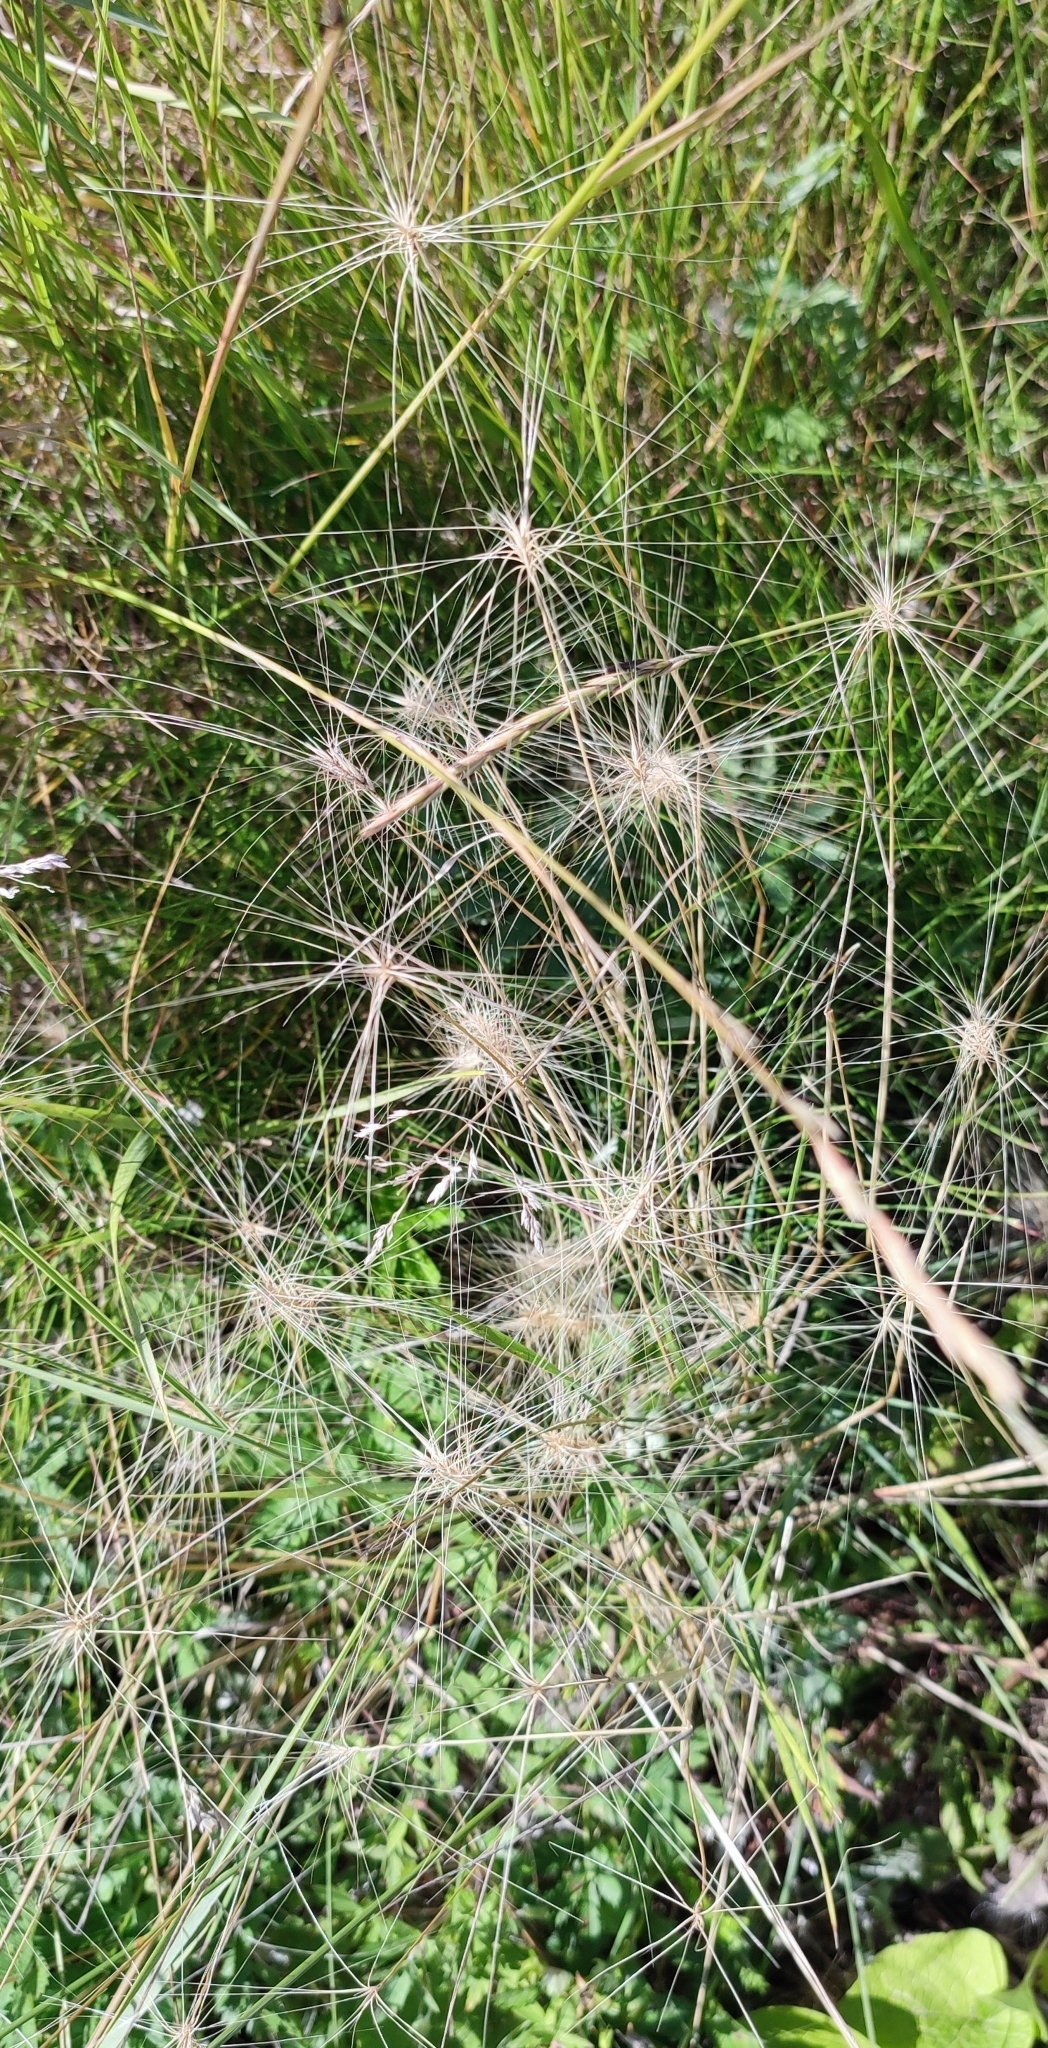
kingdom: Plantae
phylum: Tracheophyta
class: Liliopsida
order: Poales
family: Poaceae
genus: Hordeum
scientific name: Hordeum jubatum
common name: Foxtail barley
